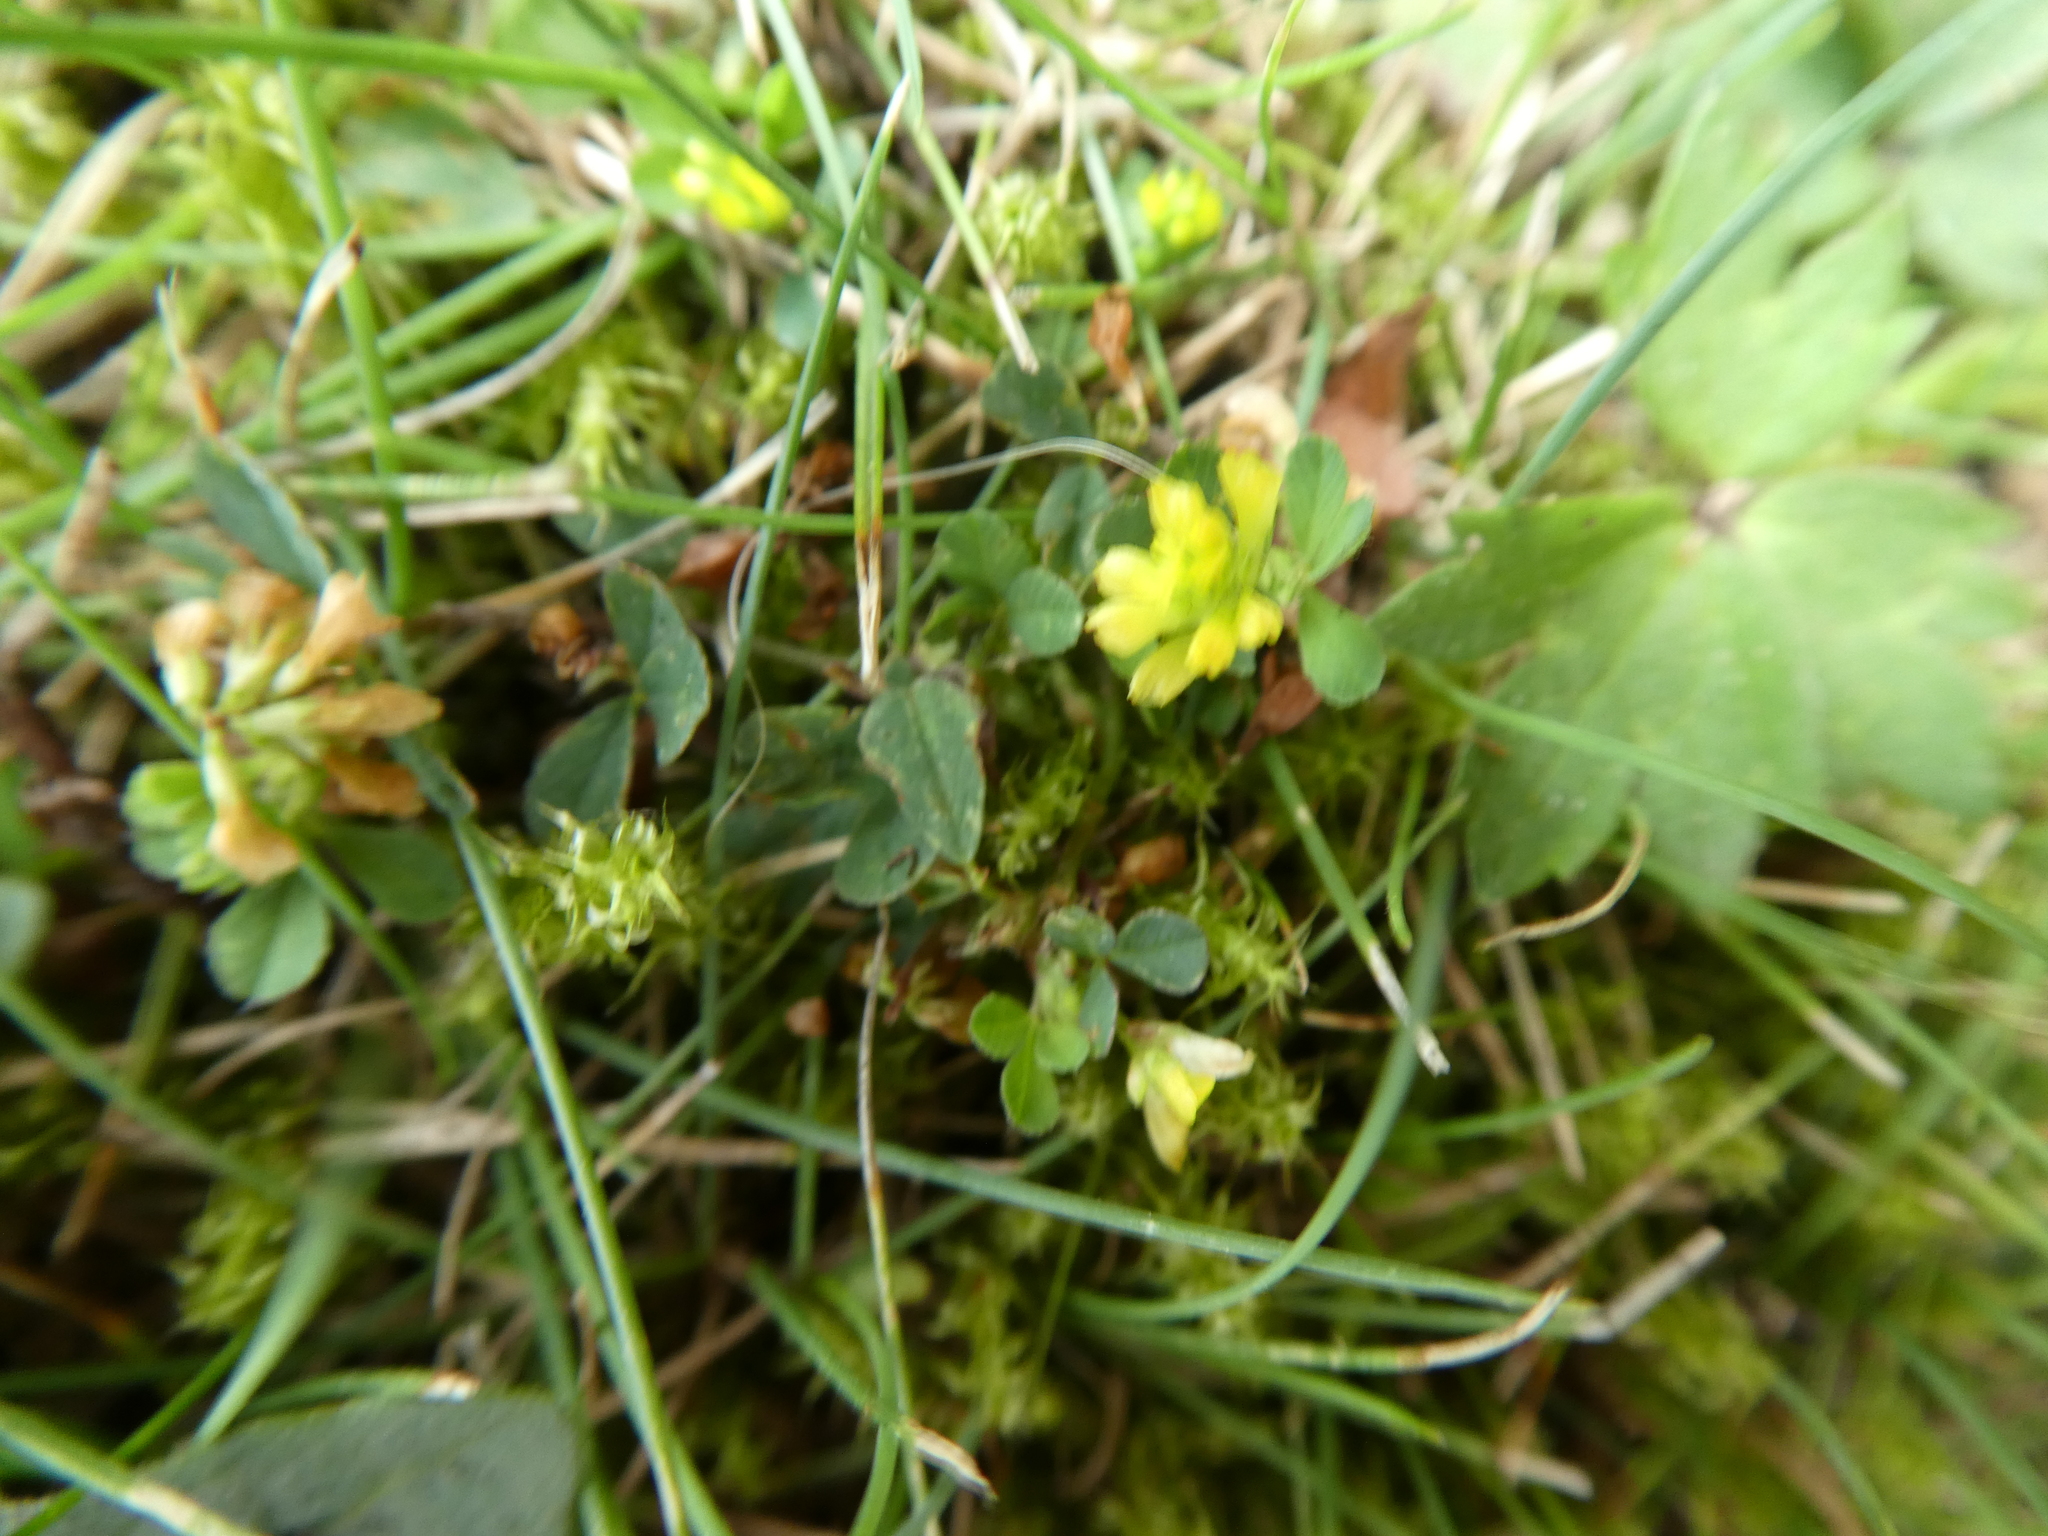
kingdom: Plantae
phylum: Tracheophyta
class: Magnoliopsida
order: Fabales
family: Fabaceae
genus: Trifolium
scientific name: Trifolium dubium
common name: Suckling clover
